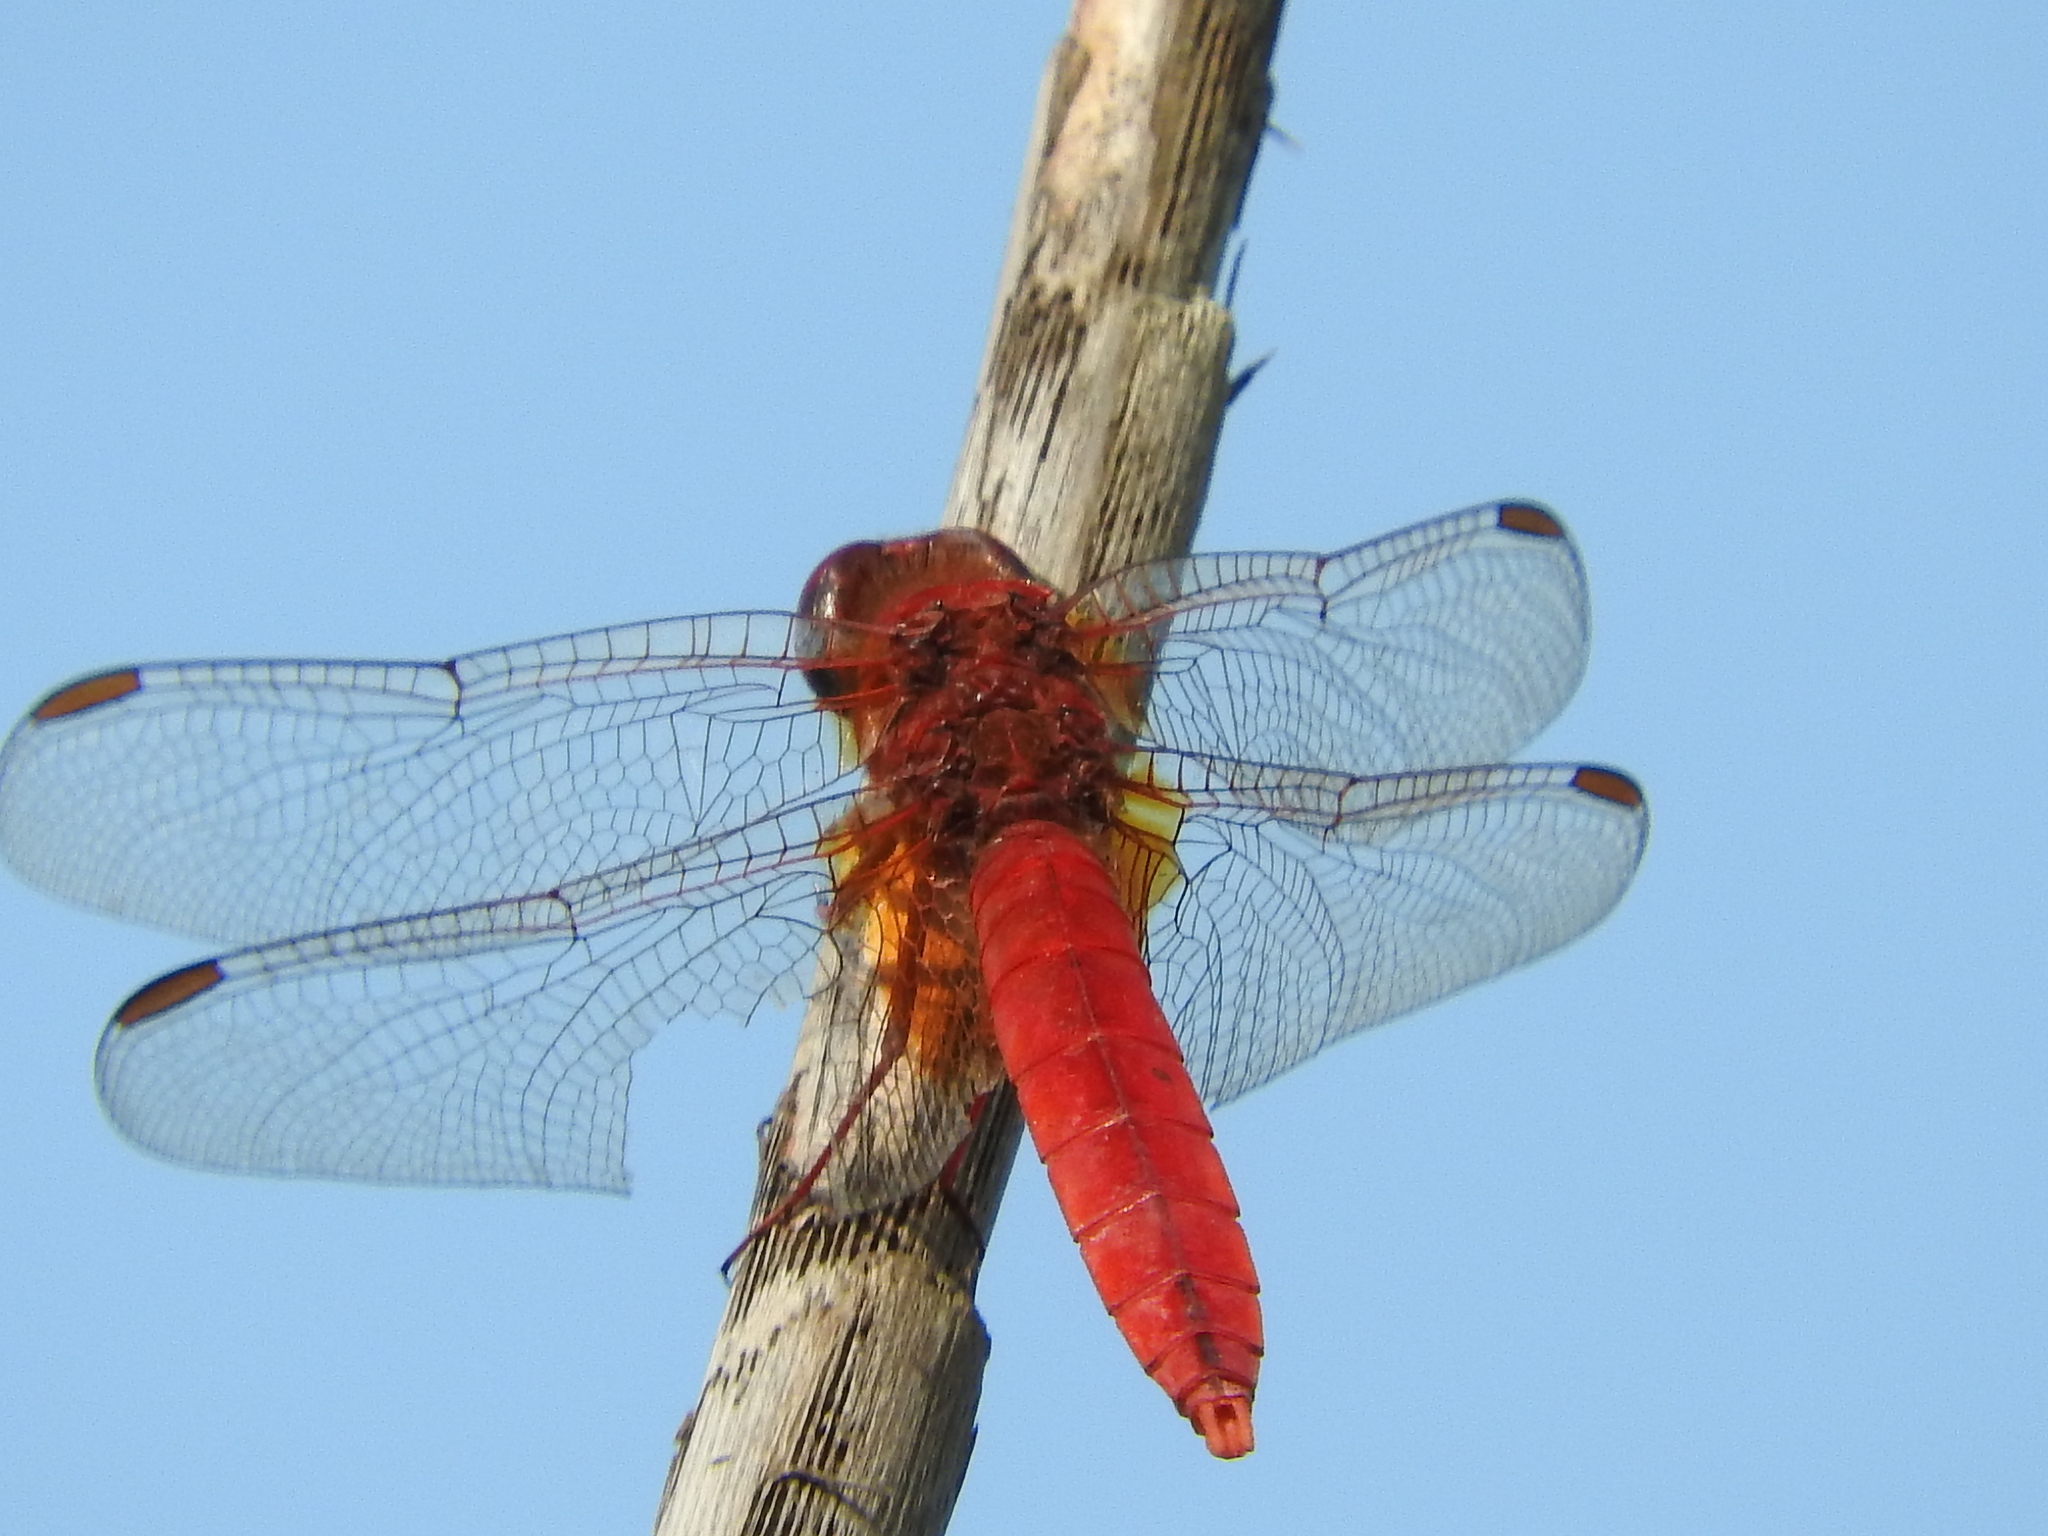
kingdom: Animalia
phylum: Arthropoda
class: Insecta
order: Odonata
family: Libellulidae
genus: Crocothemis
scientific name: Crocothemis erythraea
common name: Scarlet dragonfly
